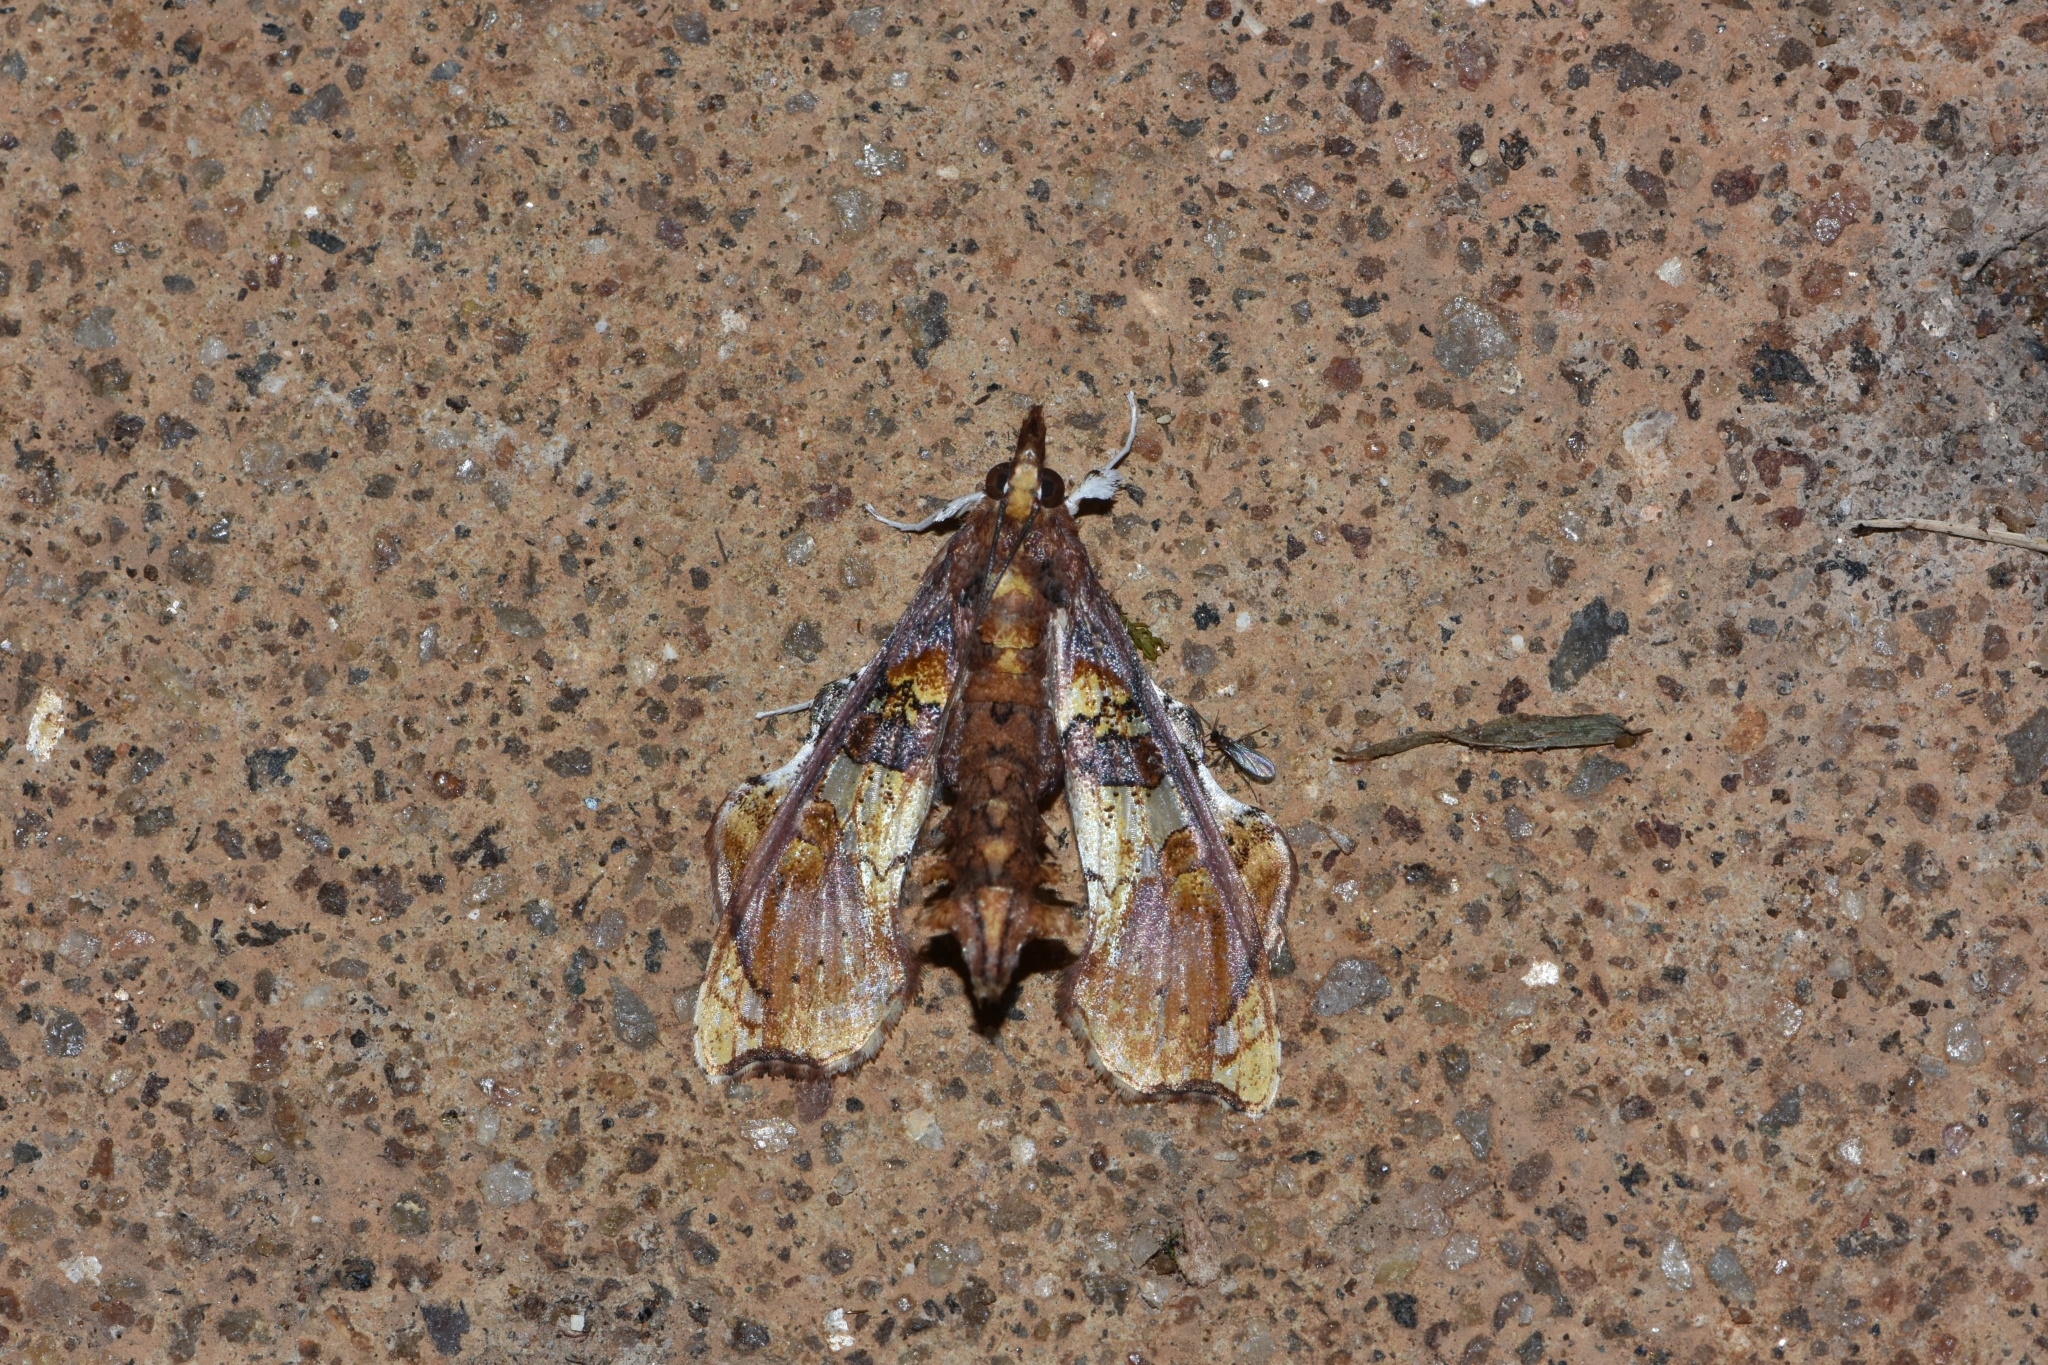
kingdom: Animalia
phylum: Arthropoda
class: Insecta
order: Lepidoptera
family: Crambidae
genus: Terastia
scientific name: Terastia egialealis
